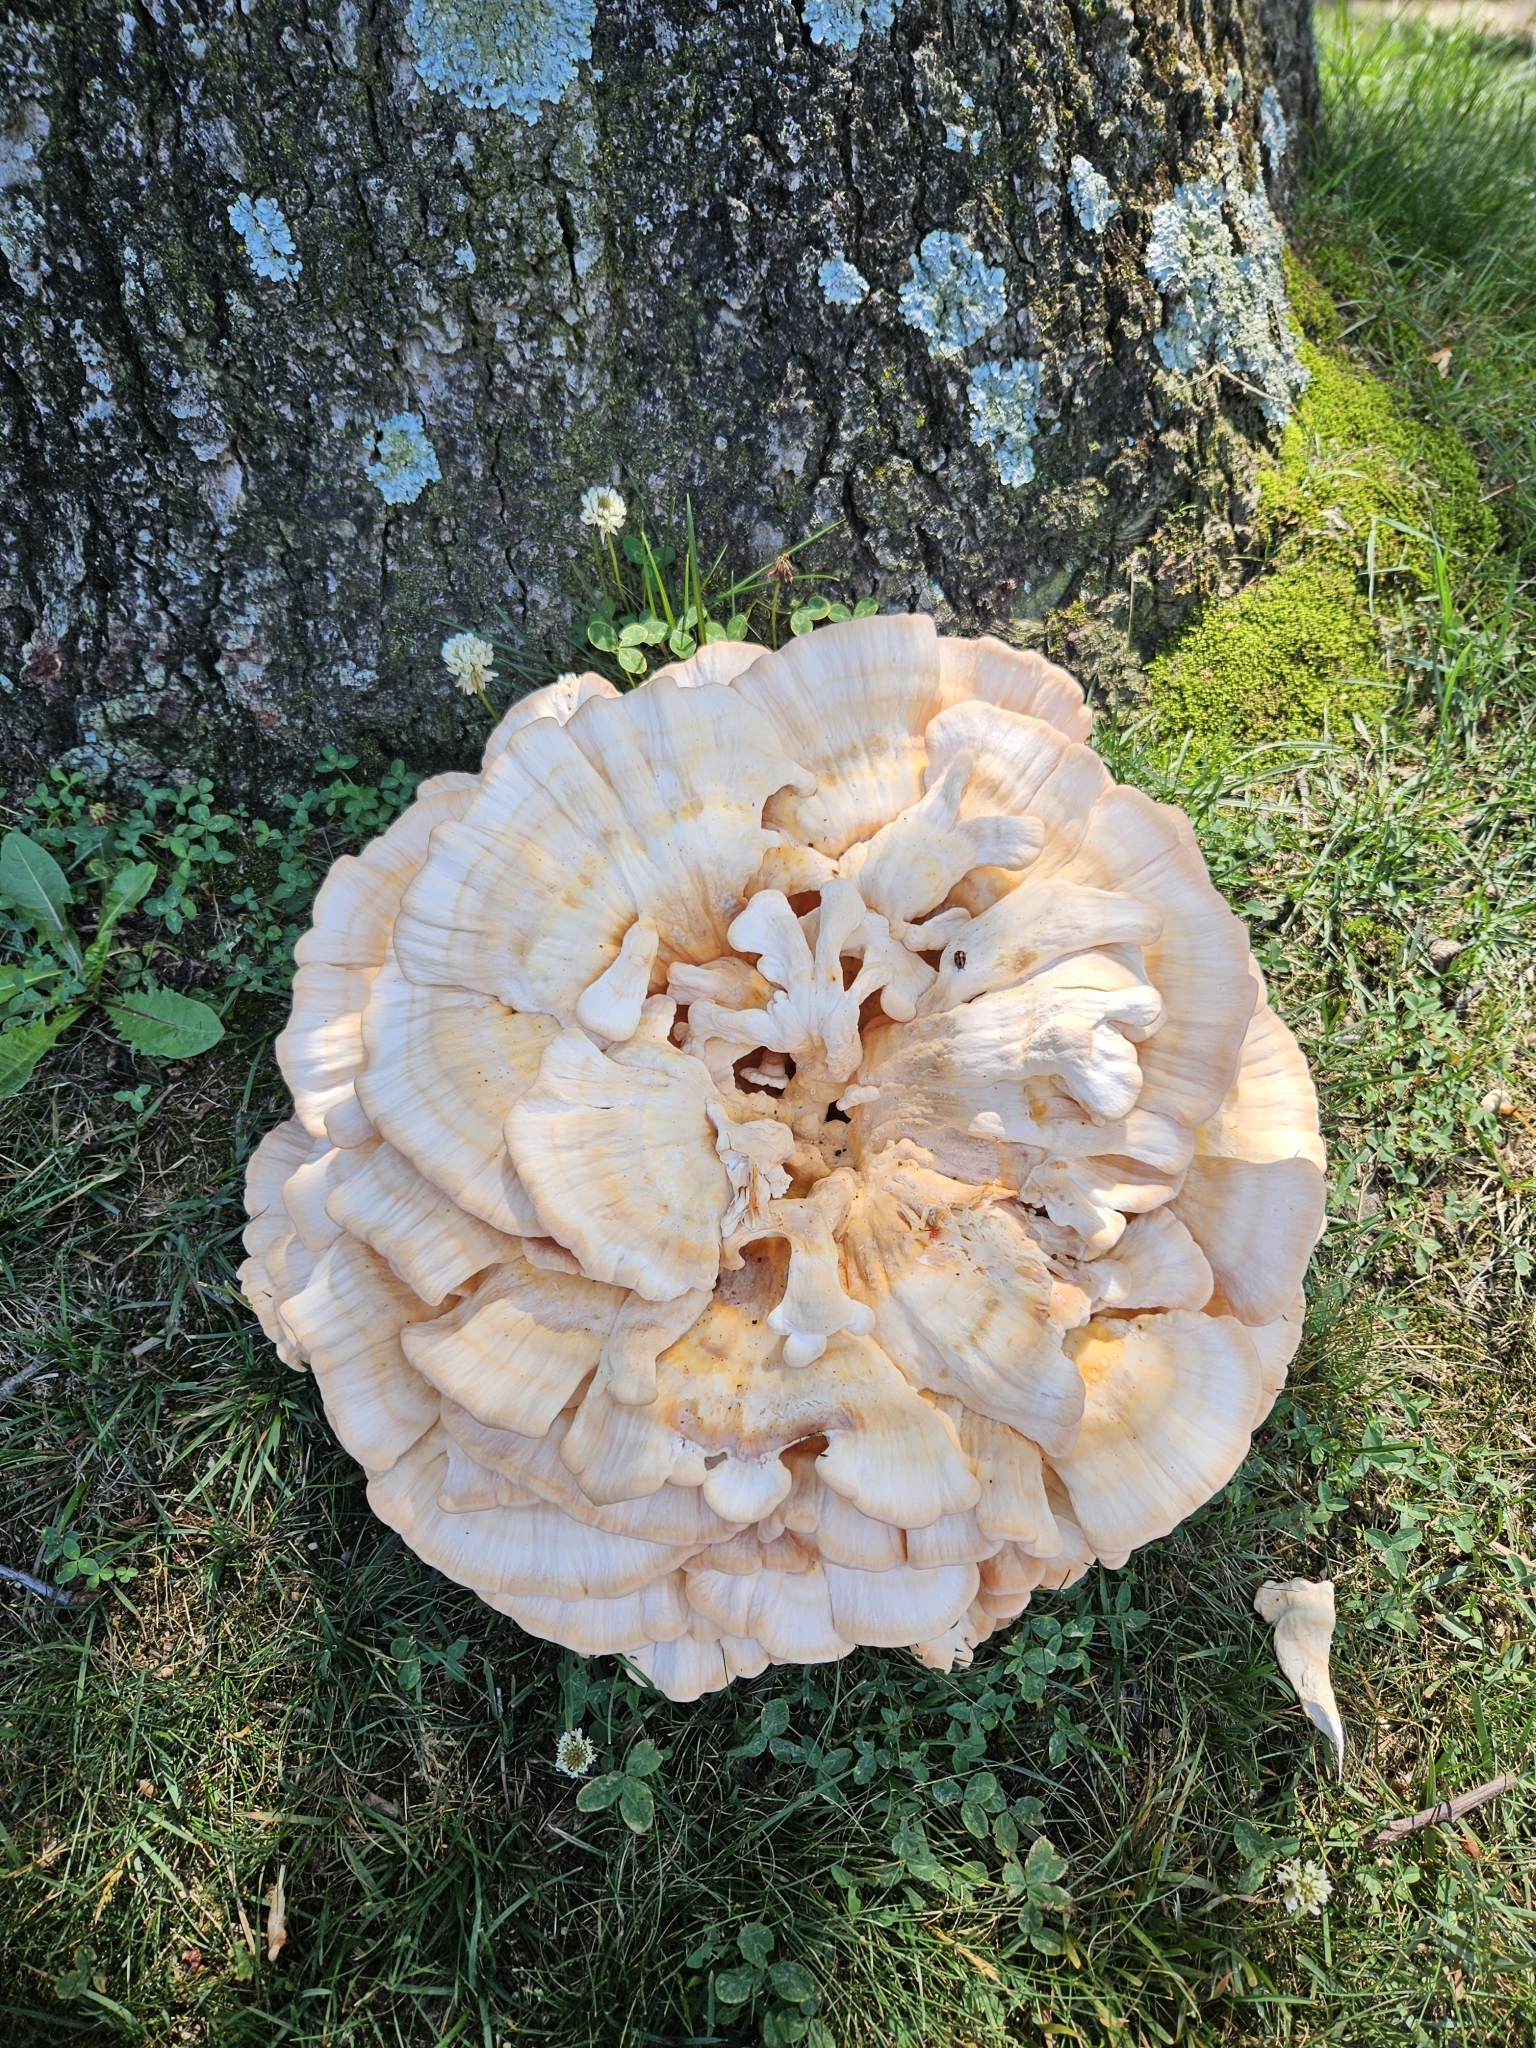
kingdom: Fungi
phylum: Basidiomycota
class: Agaricomycetes
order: Polyporales
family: Laetiporaceae
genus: Laetiporus
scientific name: Laetiporus sulphureus
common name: Chicken of the woods
